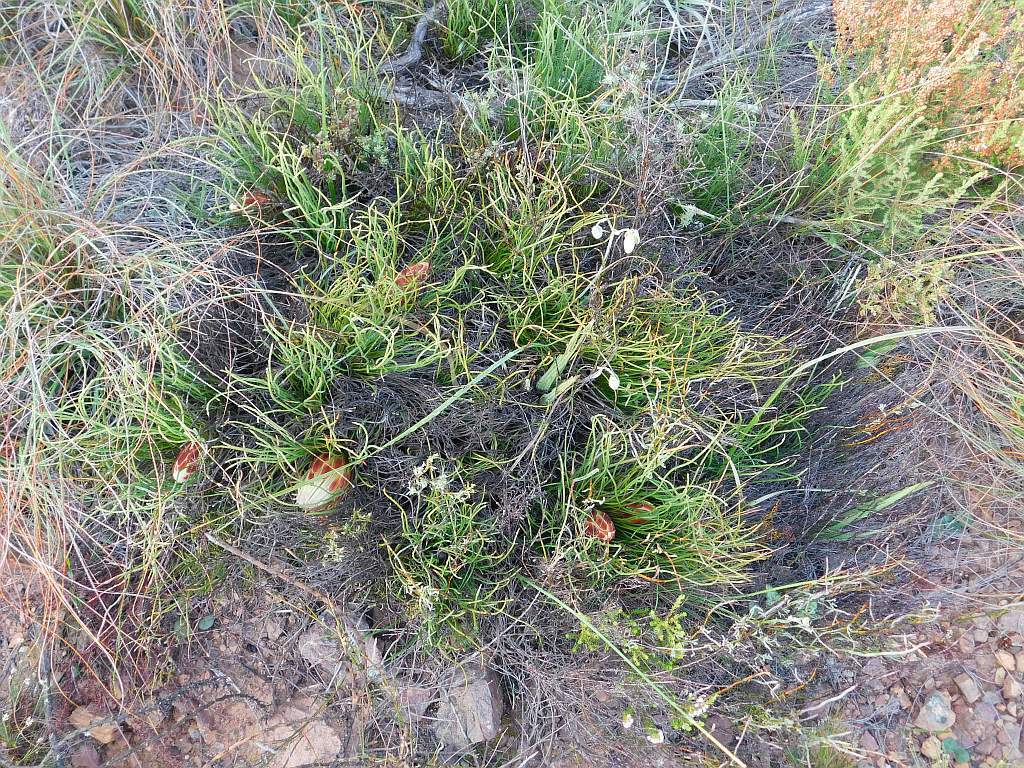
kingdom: Plantae
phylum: Tracheophyta
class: Magnoliopsida
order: Proteales
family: Proteaceae
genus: Protea
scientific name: Protea restionifolia
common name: Reed-leaf sugarbush
